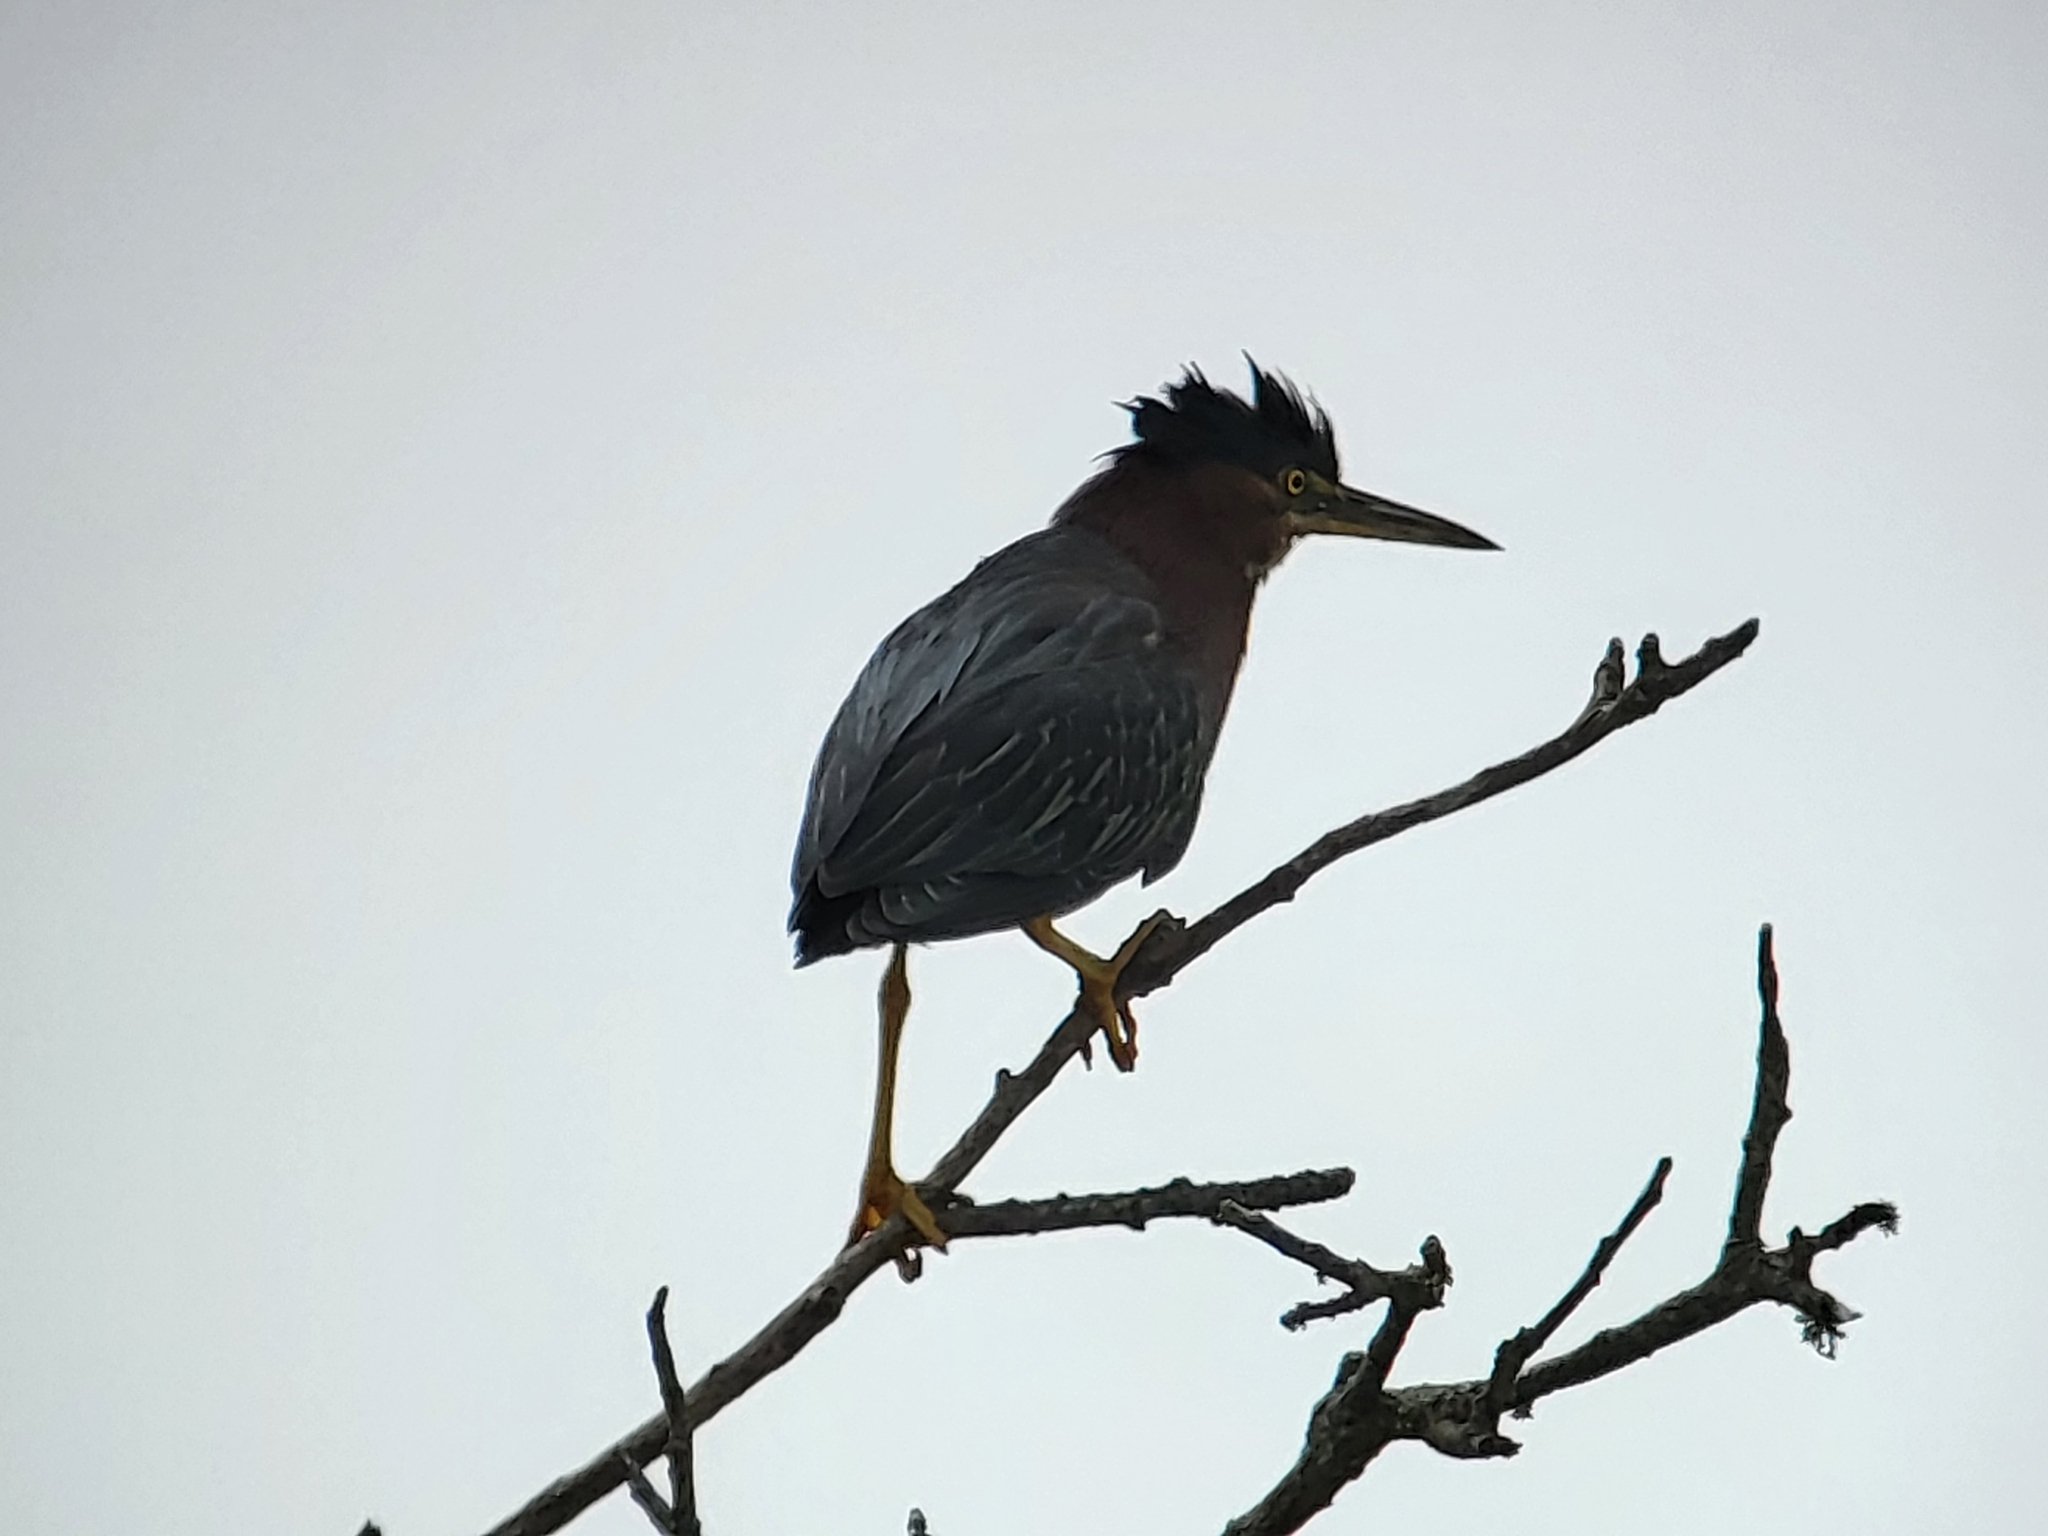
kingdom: Animalia
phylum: Chordata
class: Aves
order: Pelecaniformes
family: Ardeidae
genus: Butorides
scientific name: Butorides virescens
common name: Green heron
